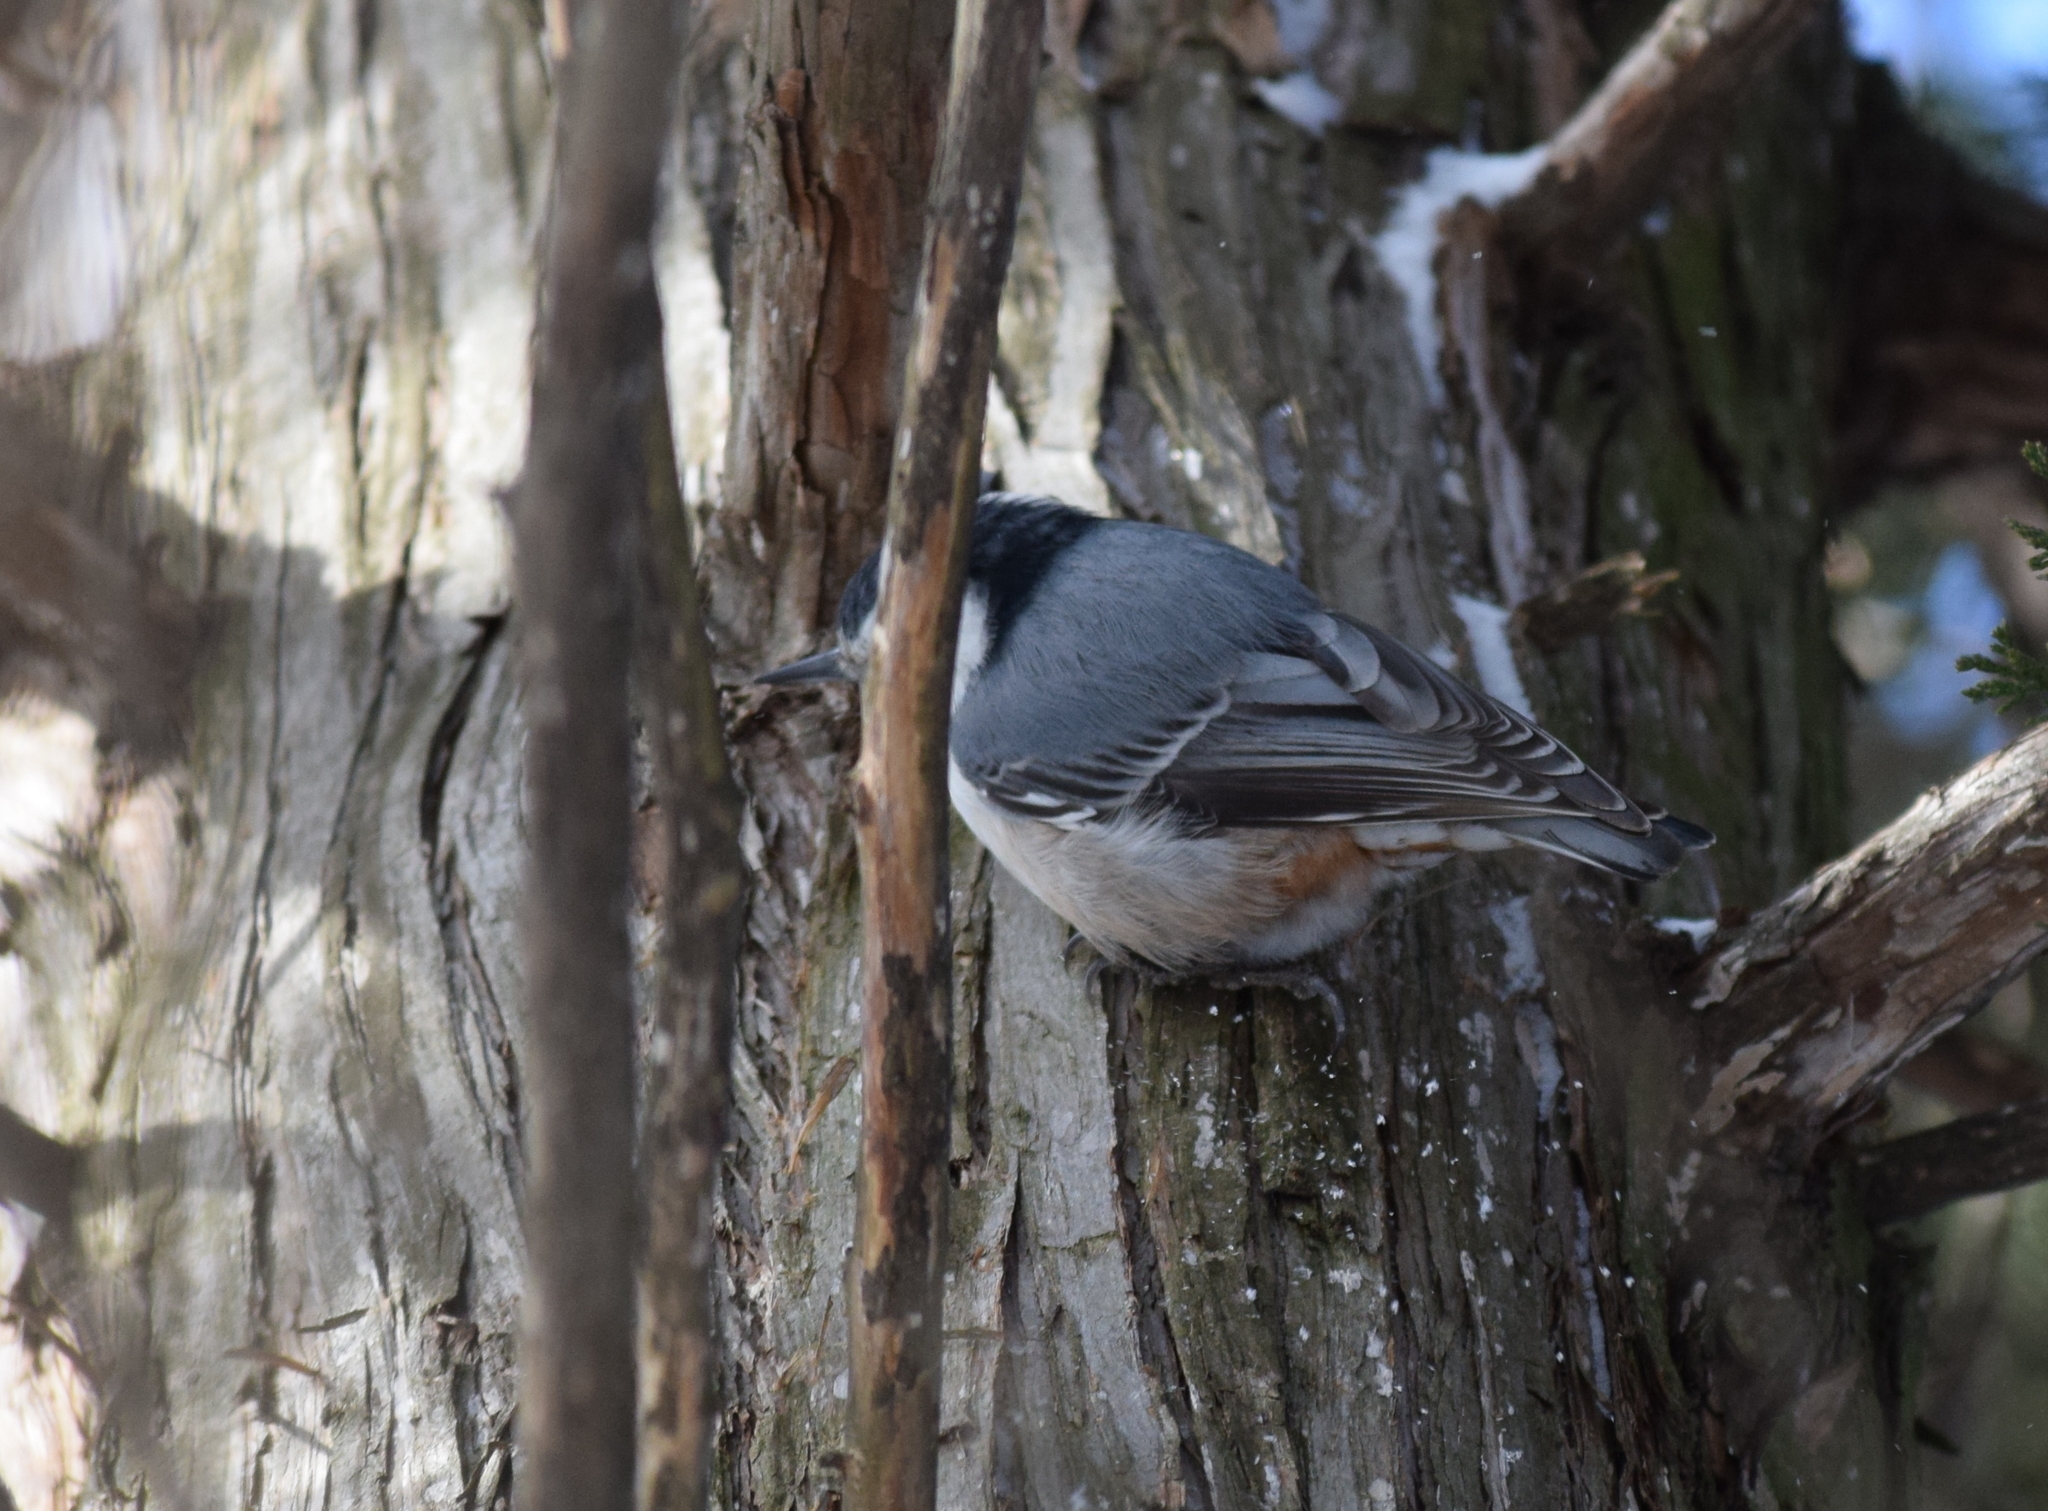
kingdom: Animalia
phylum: Chordata
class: Aves
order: Passeriformes
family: Sittidae
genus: Sitta
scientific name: Sitta carolinensis
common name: White-breasted nuthatch
